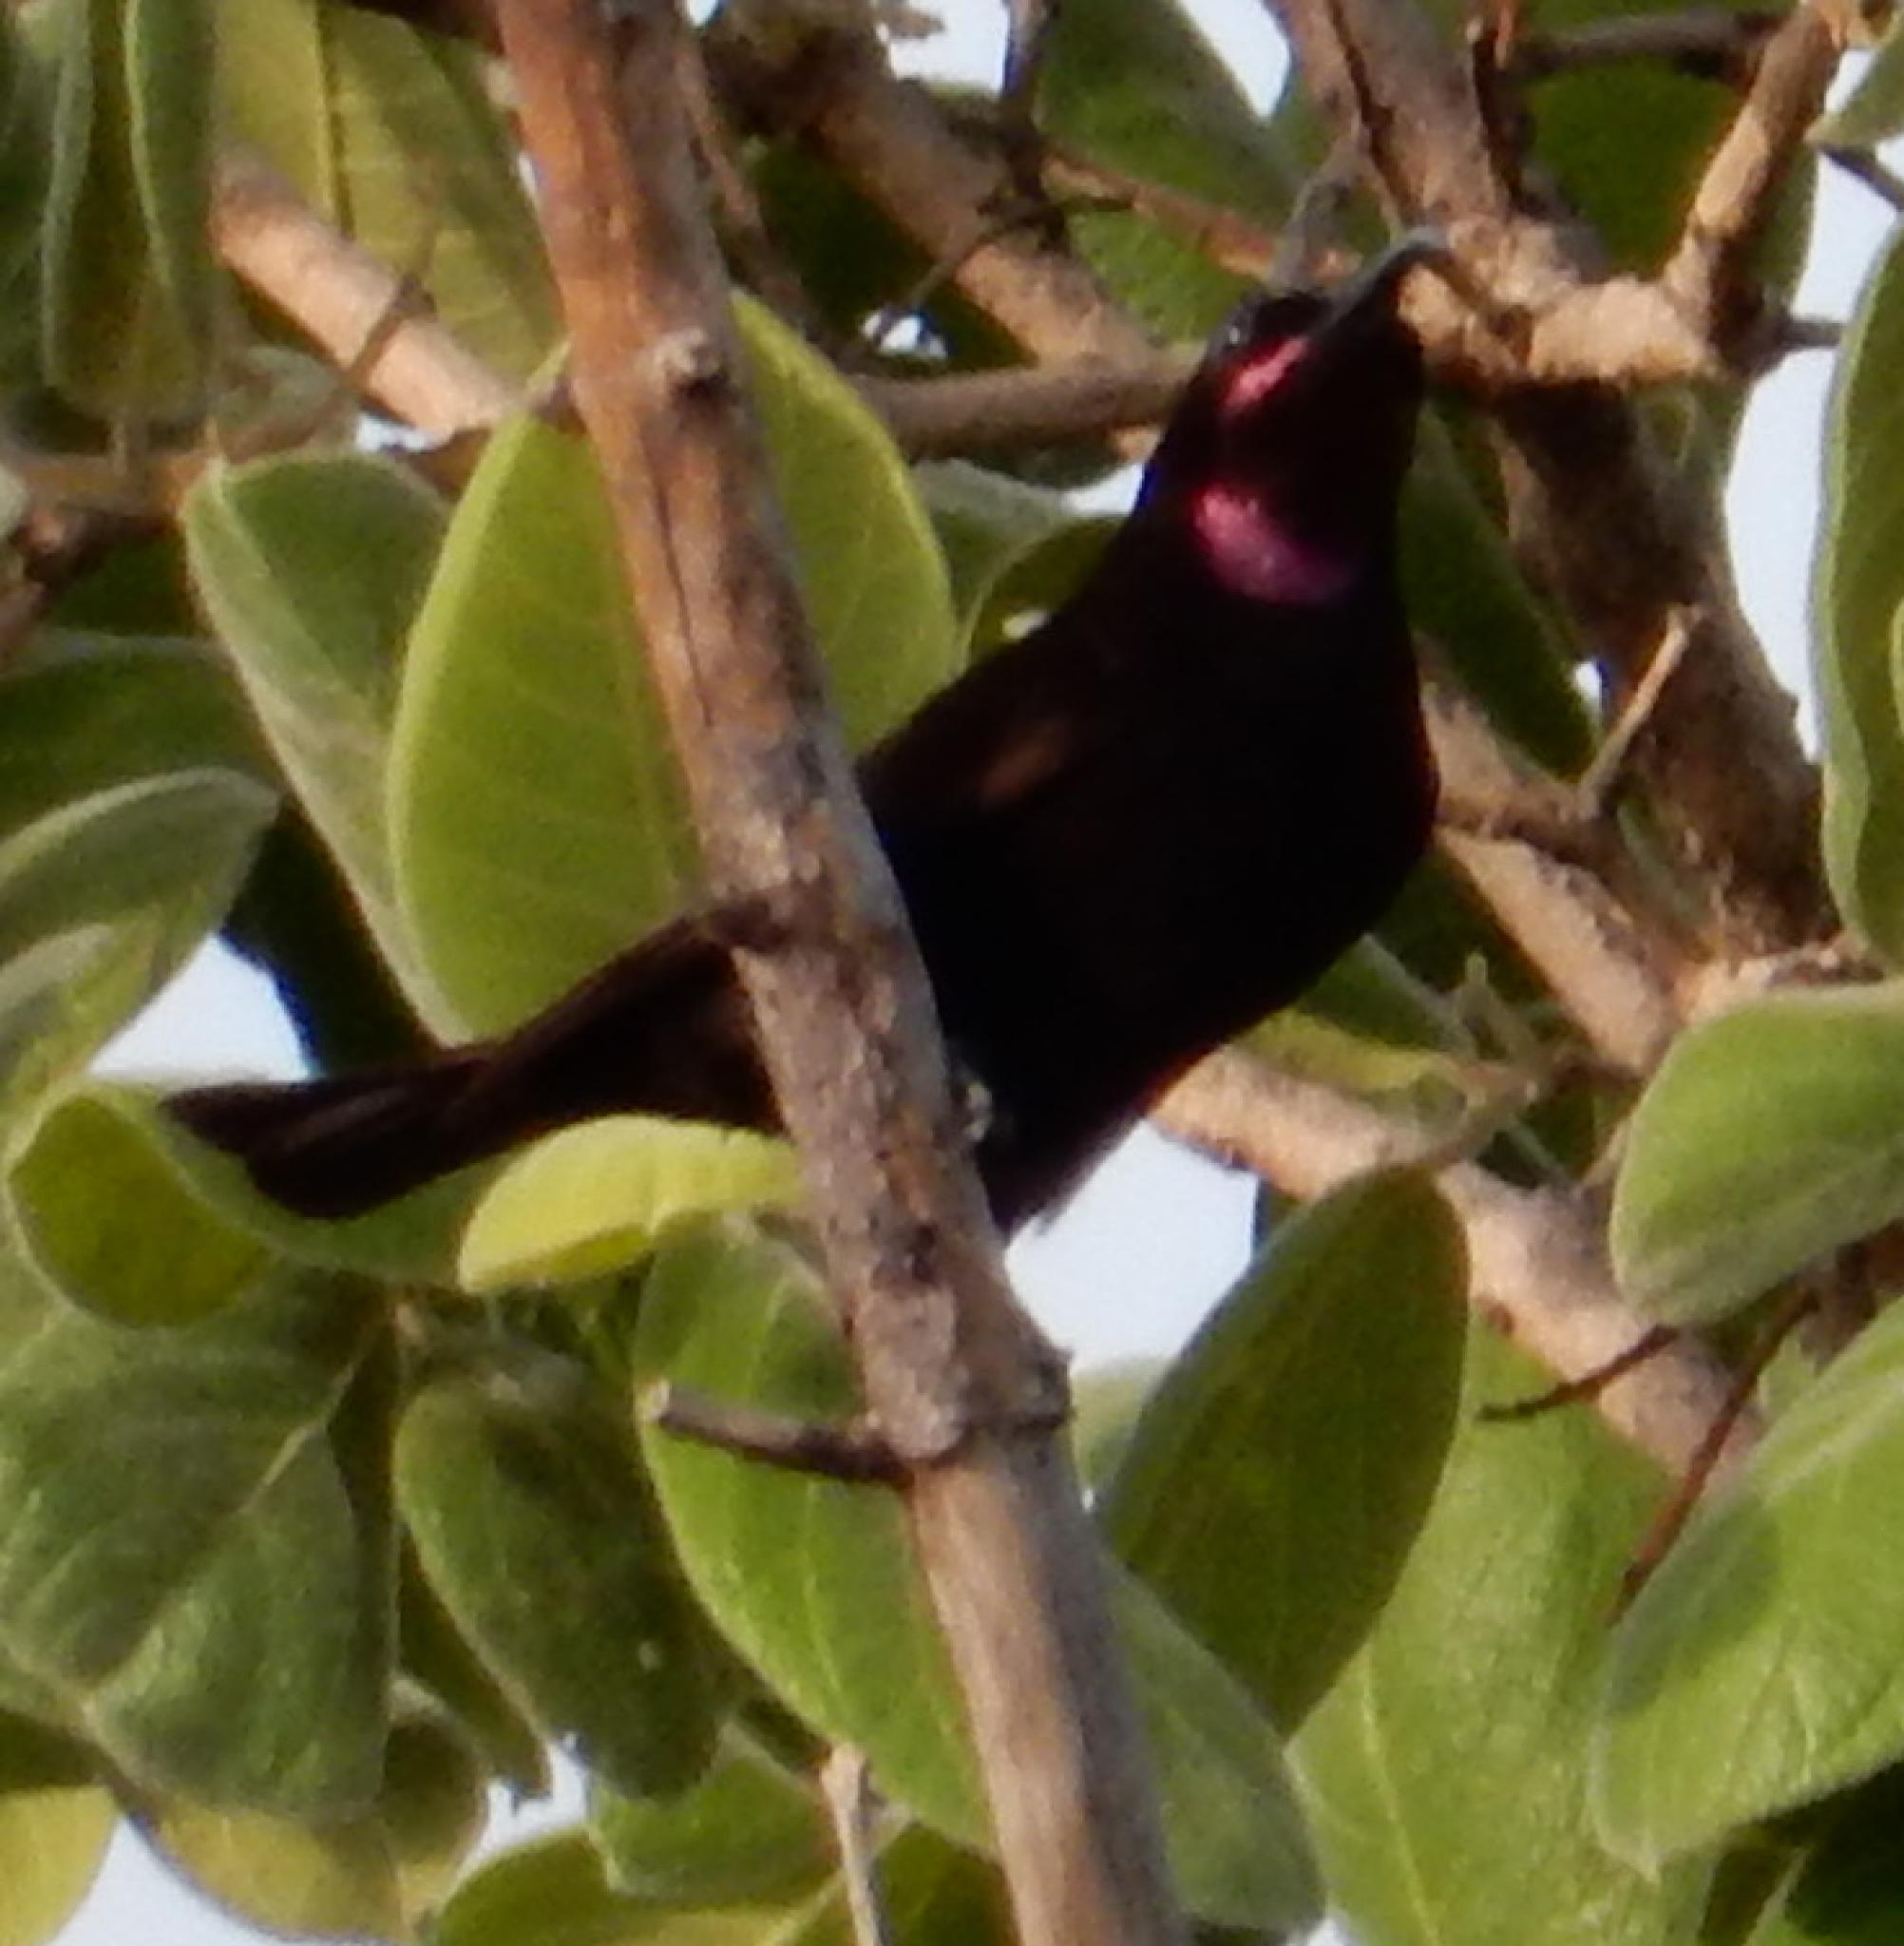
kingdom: Animalia
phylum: Chordata
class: Aves
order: Passeriformes
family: Nectariniidae
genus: Chalcomitra
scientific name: Chalcomitra amethystina
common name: Amethyst sunbird
